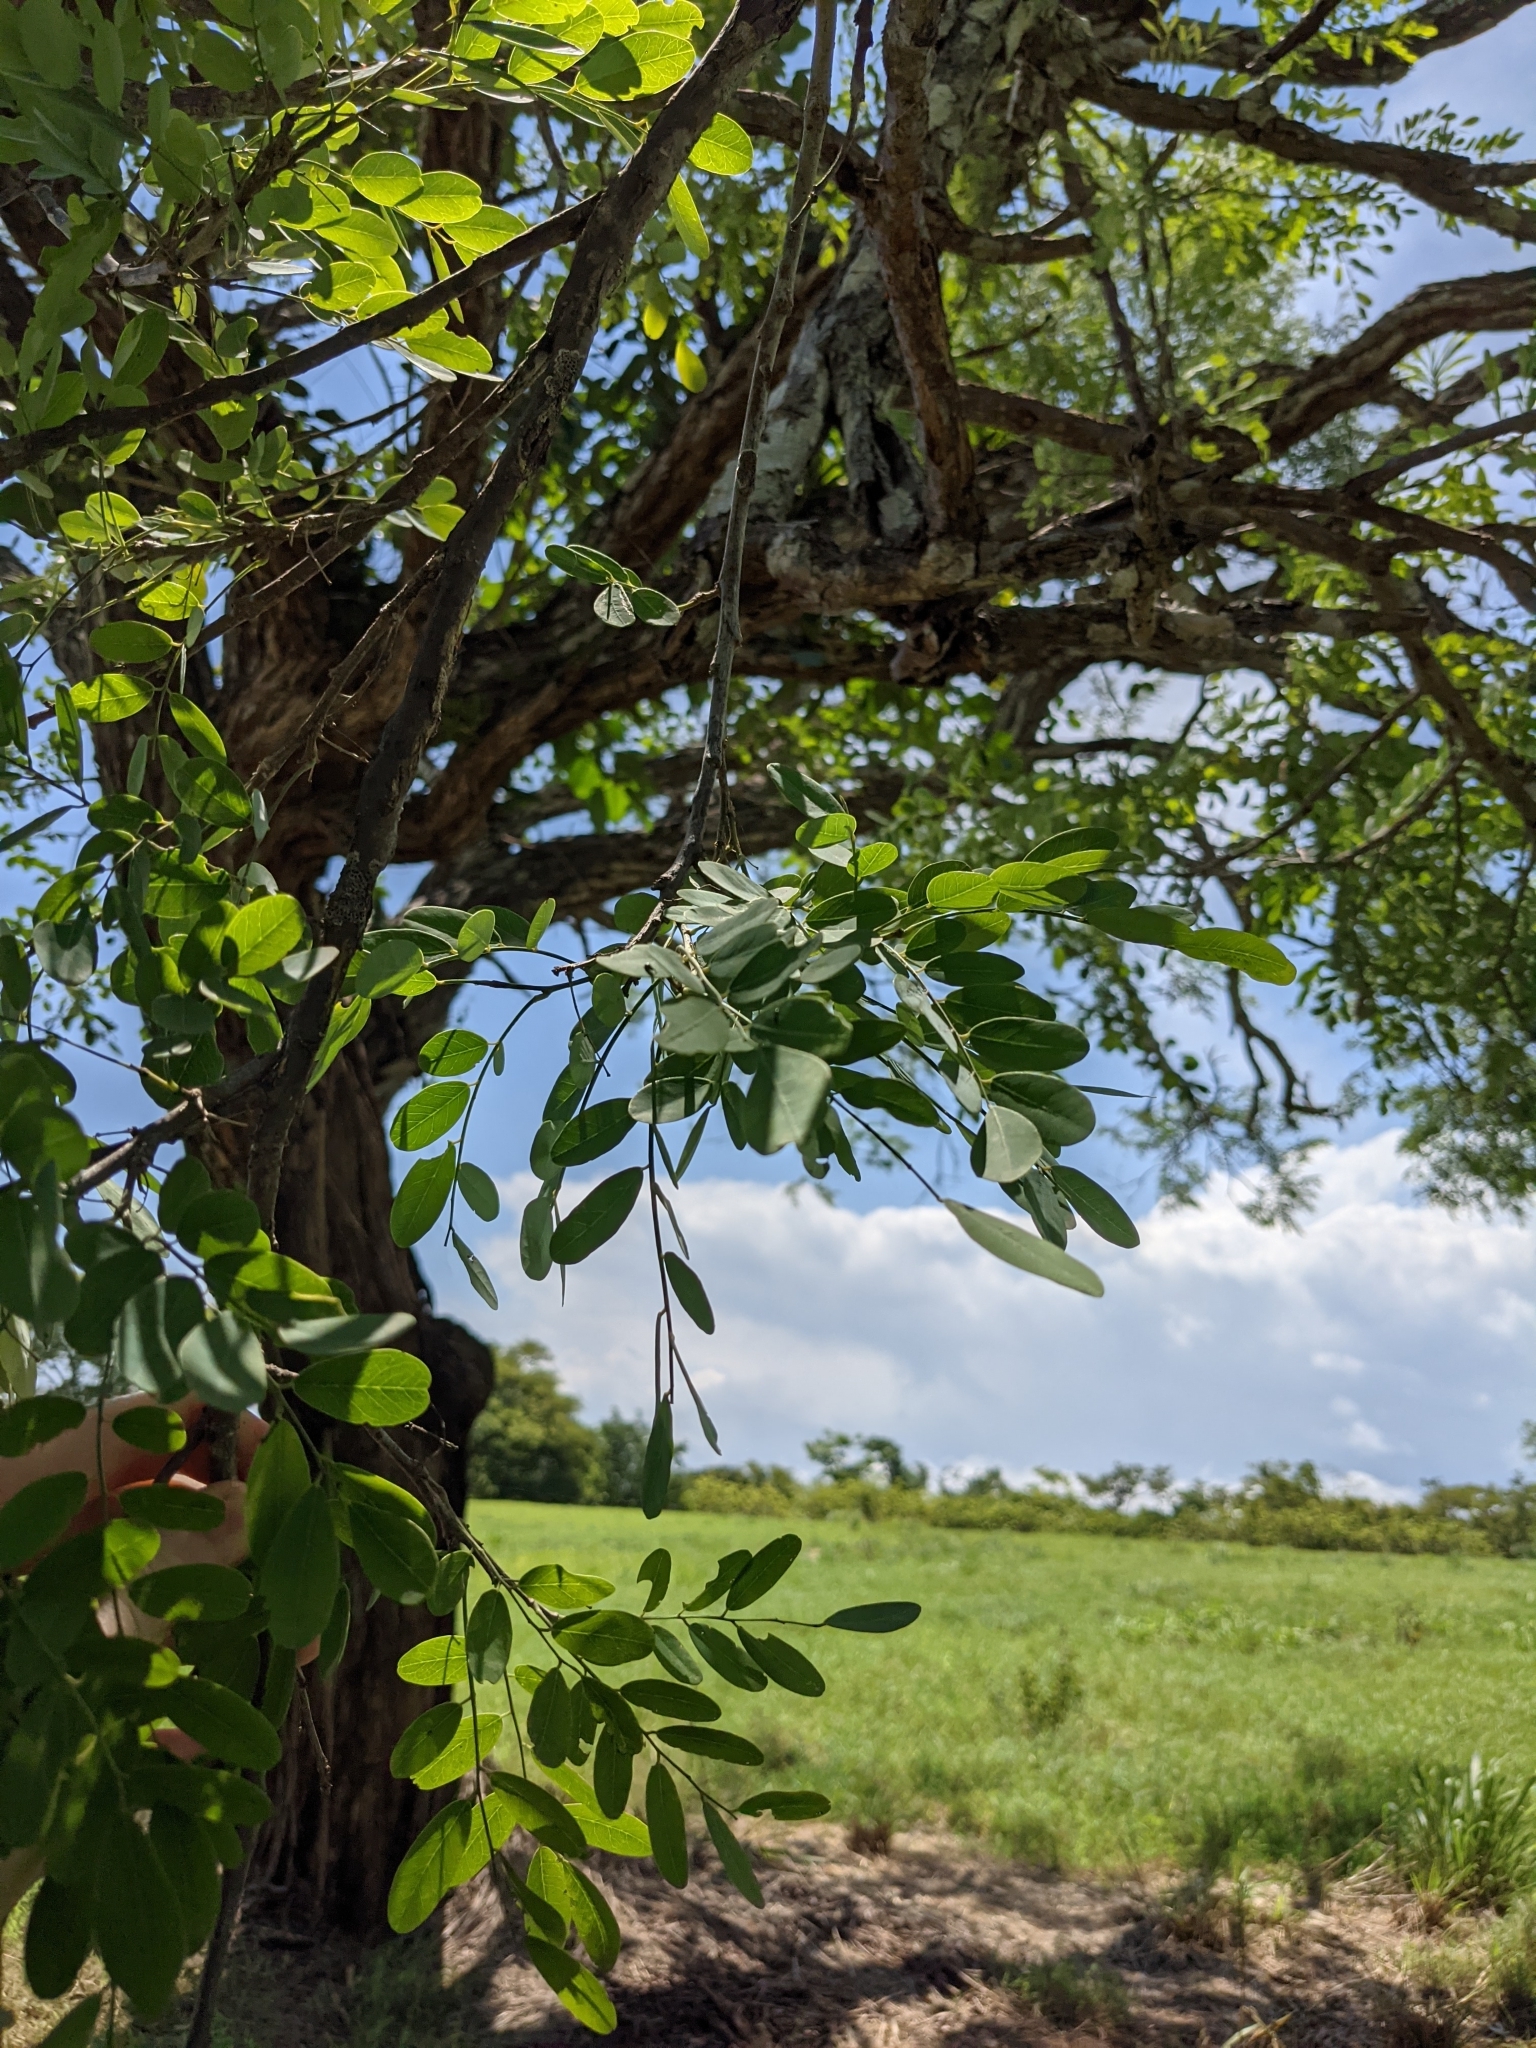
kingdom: Plantae
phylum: Tracheophyta
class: Magnoliopsida
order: Fabales
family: Fabaceae
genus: Diphysa
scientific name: Diphysa americana
